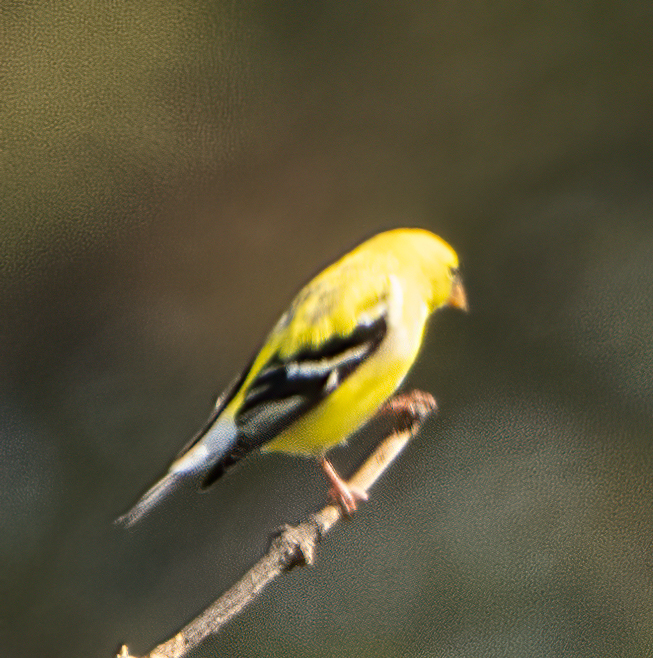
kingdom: Animalia
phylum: Chordata
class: Aves
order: Passeriformes
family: Fringillidae
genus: Spinus
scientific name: Spinus tristis
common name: American goldfinch
